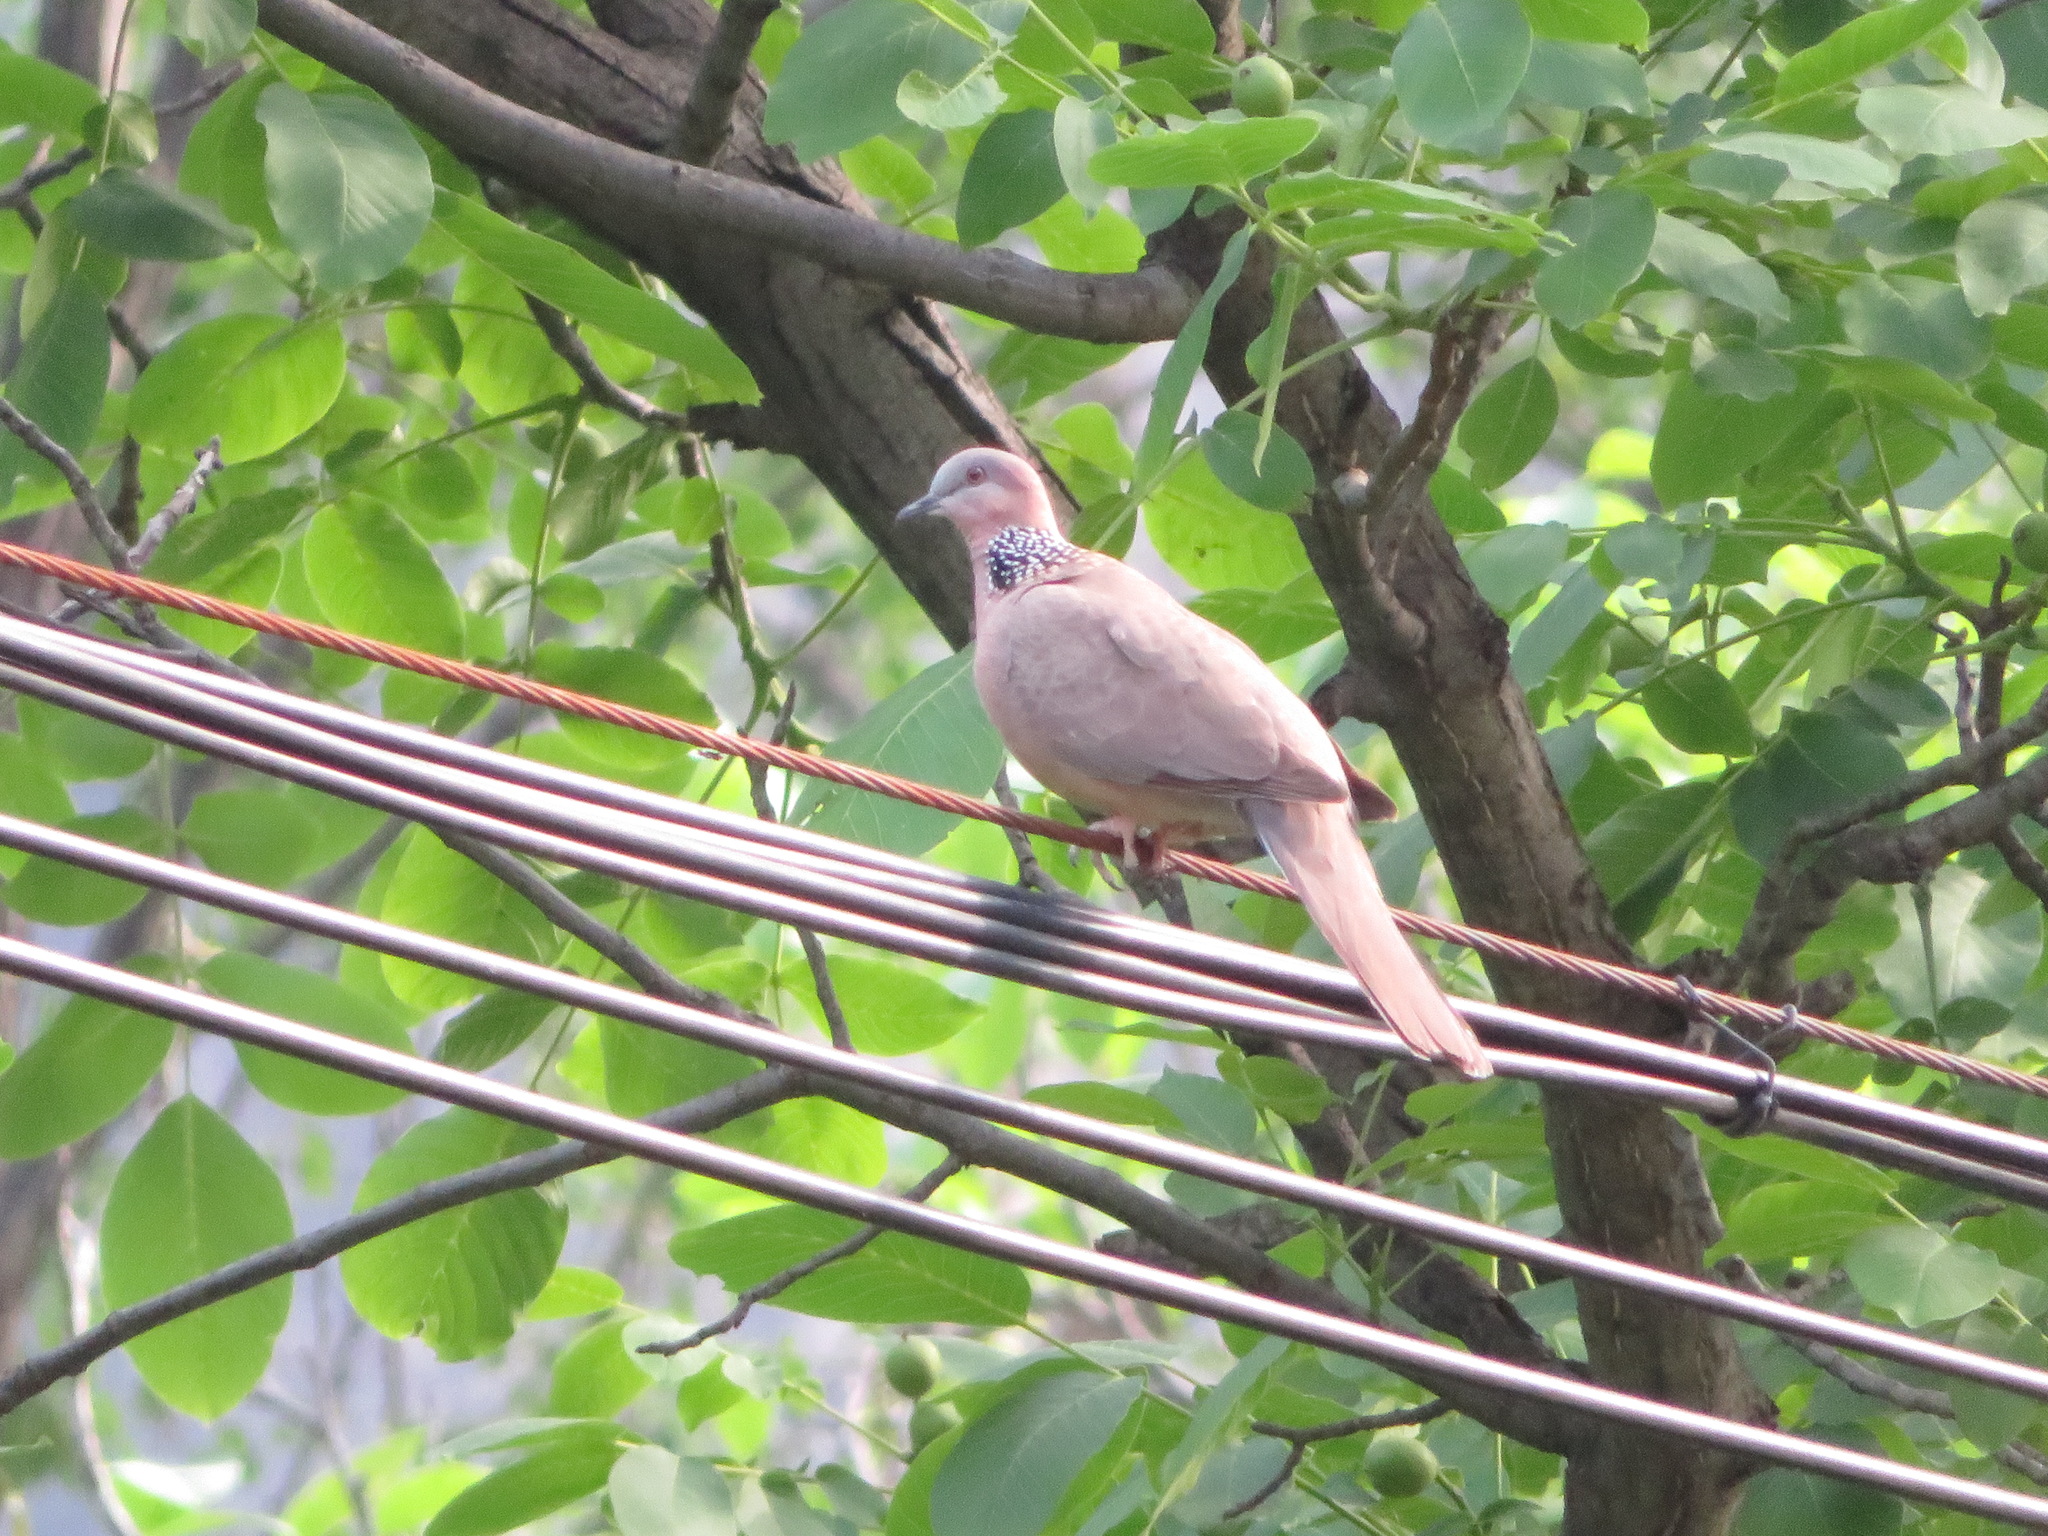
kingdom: Animalia
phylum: Chordata
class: Aves
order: Columbiformes
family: Columbidae
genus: Spilopelia
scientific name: Spilopelia chinensis
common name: Spotted dove
